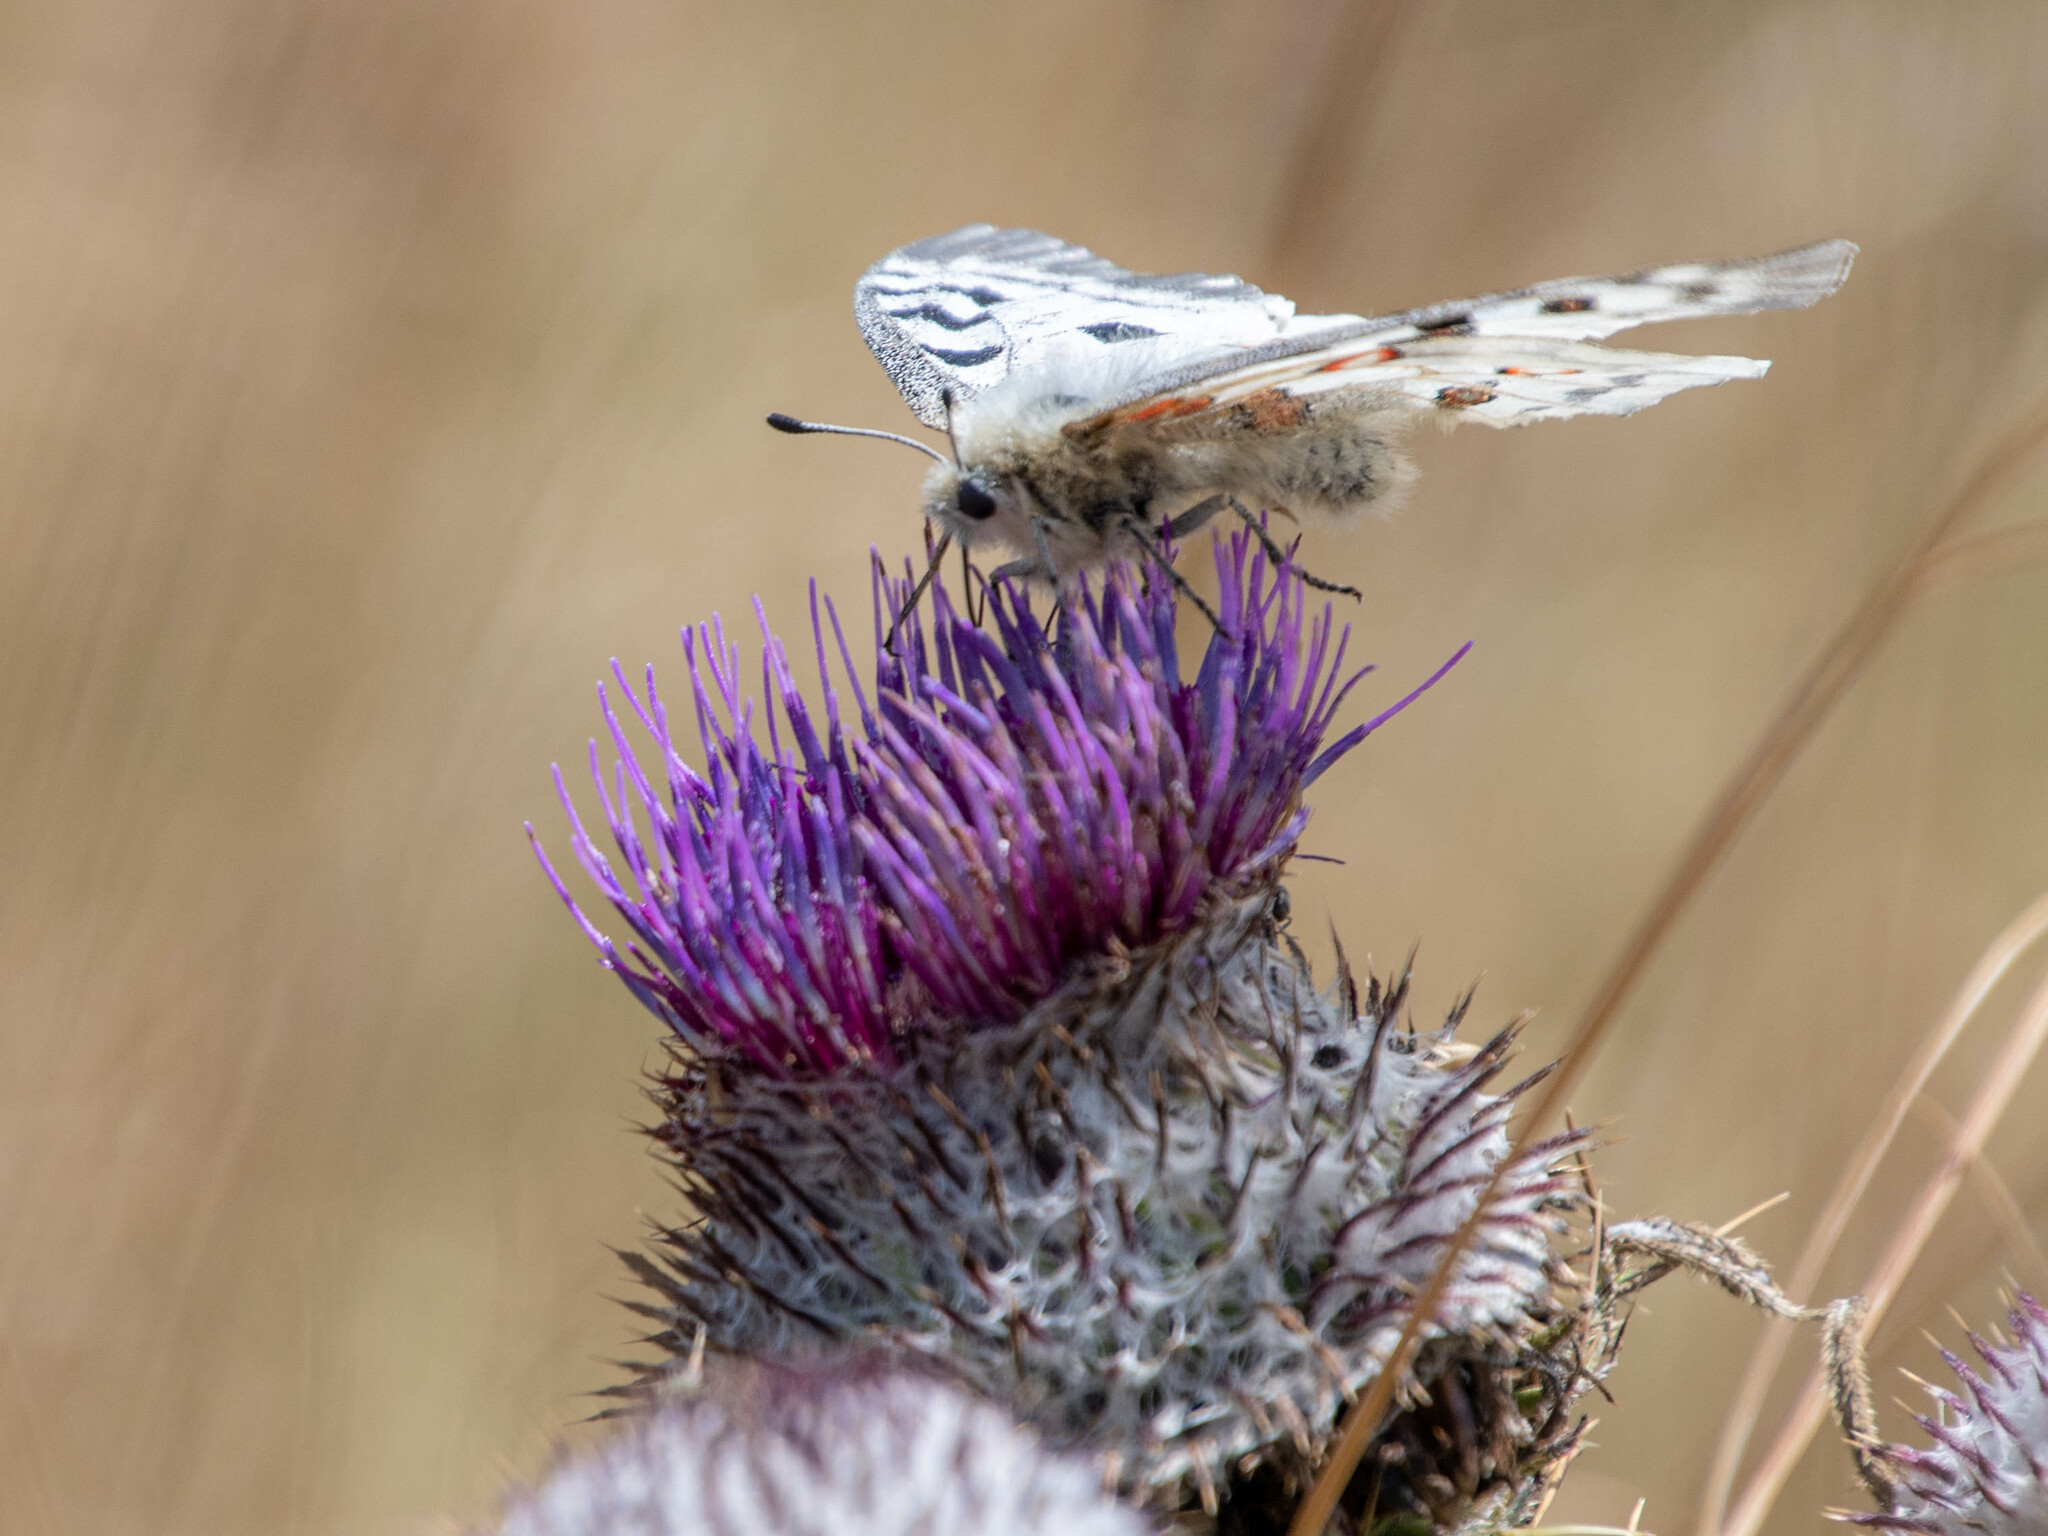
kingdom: Animalia
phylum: Arthropoda
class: Insecta
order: Lepidoptera
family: Papilionidae
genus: Parnassius
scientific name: Parnassius apollo
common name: Apollo
